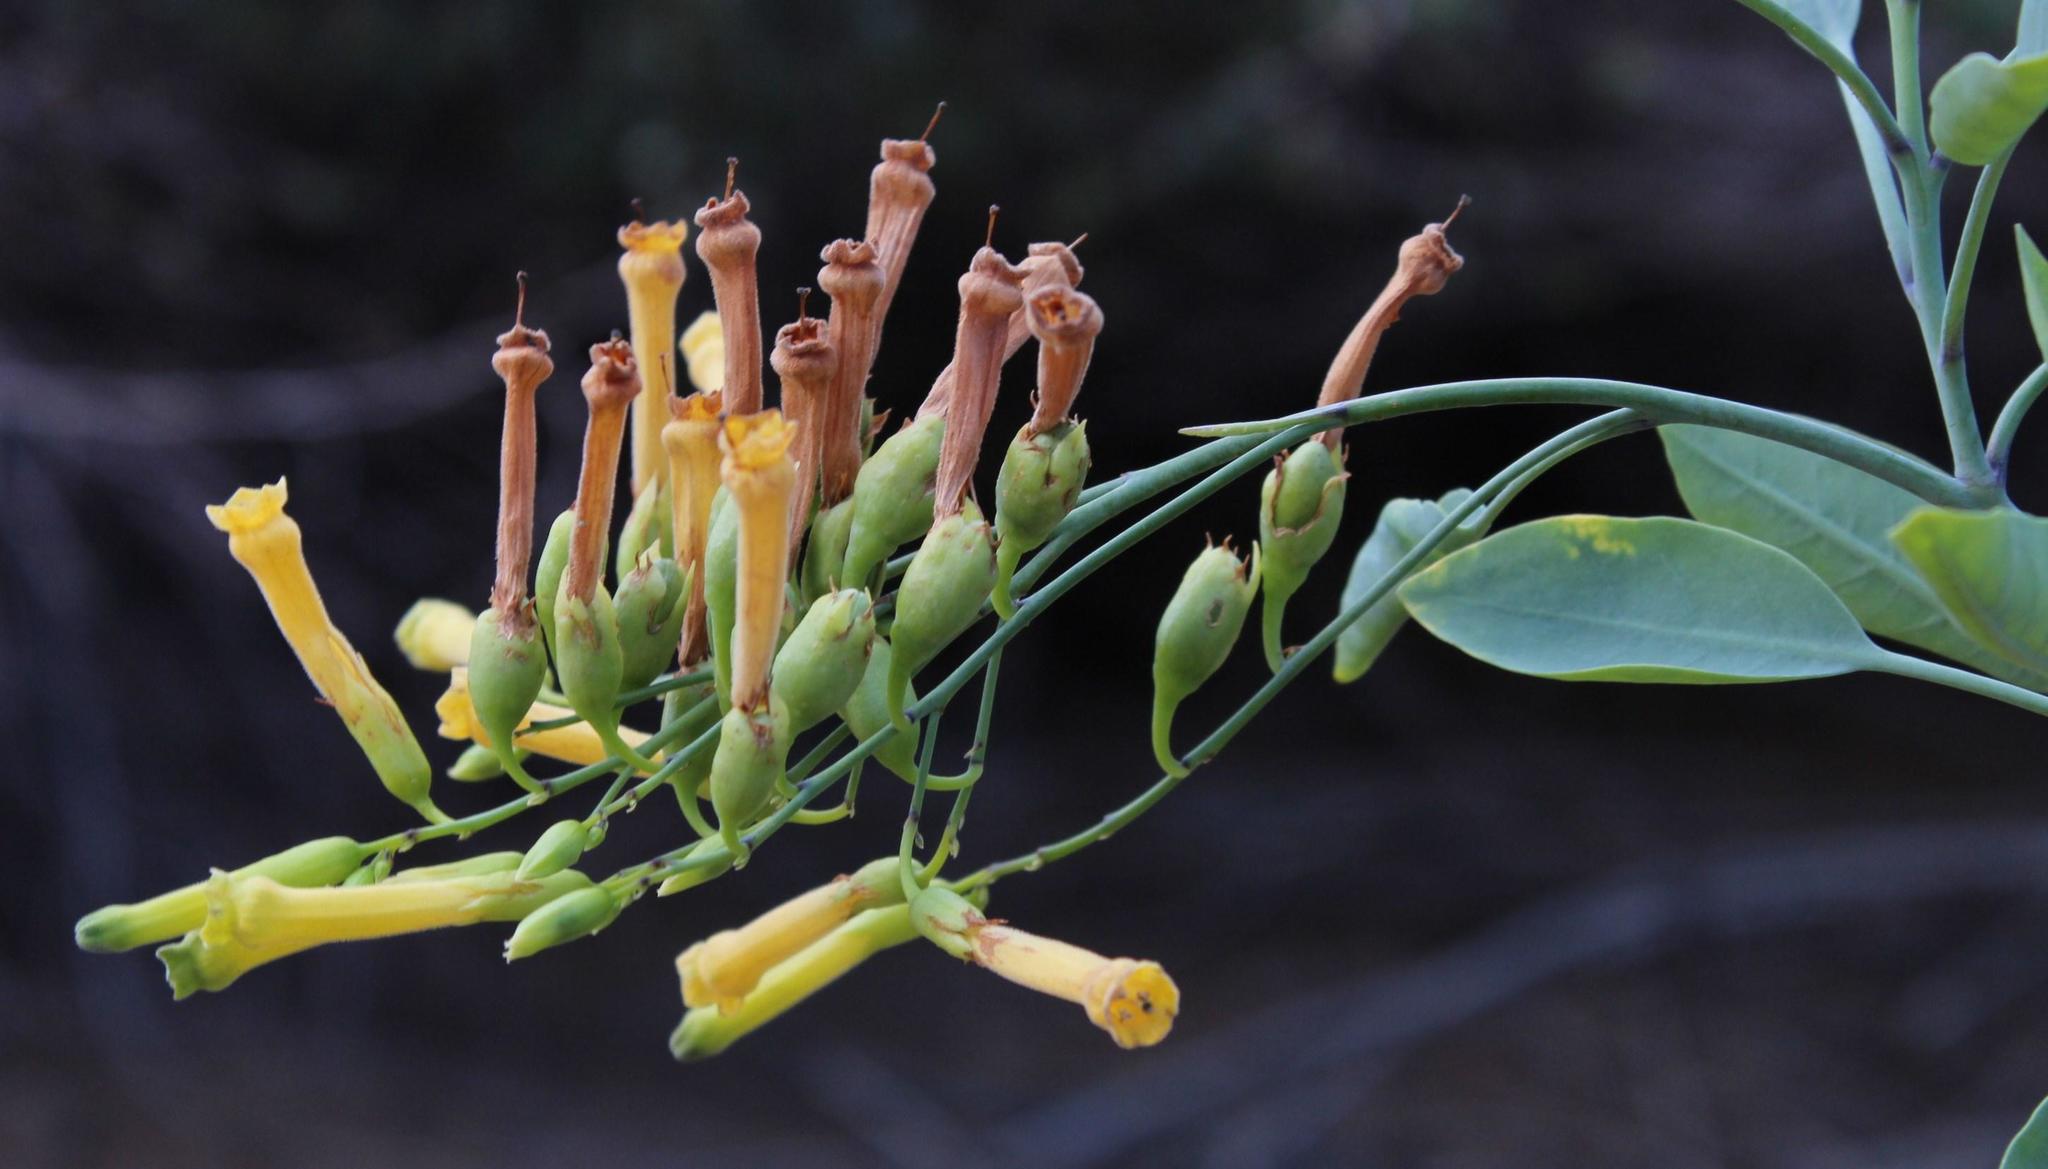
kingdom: Plantae
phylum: Tracheophyta
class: Magnoliopsida
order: Solanales
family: Solanaceae
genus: Nicotiana
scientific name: Nicotiana glauca
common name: Tree tobacco
